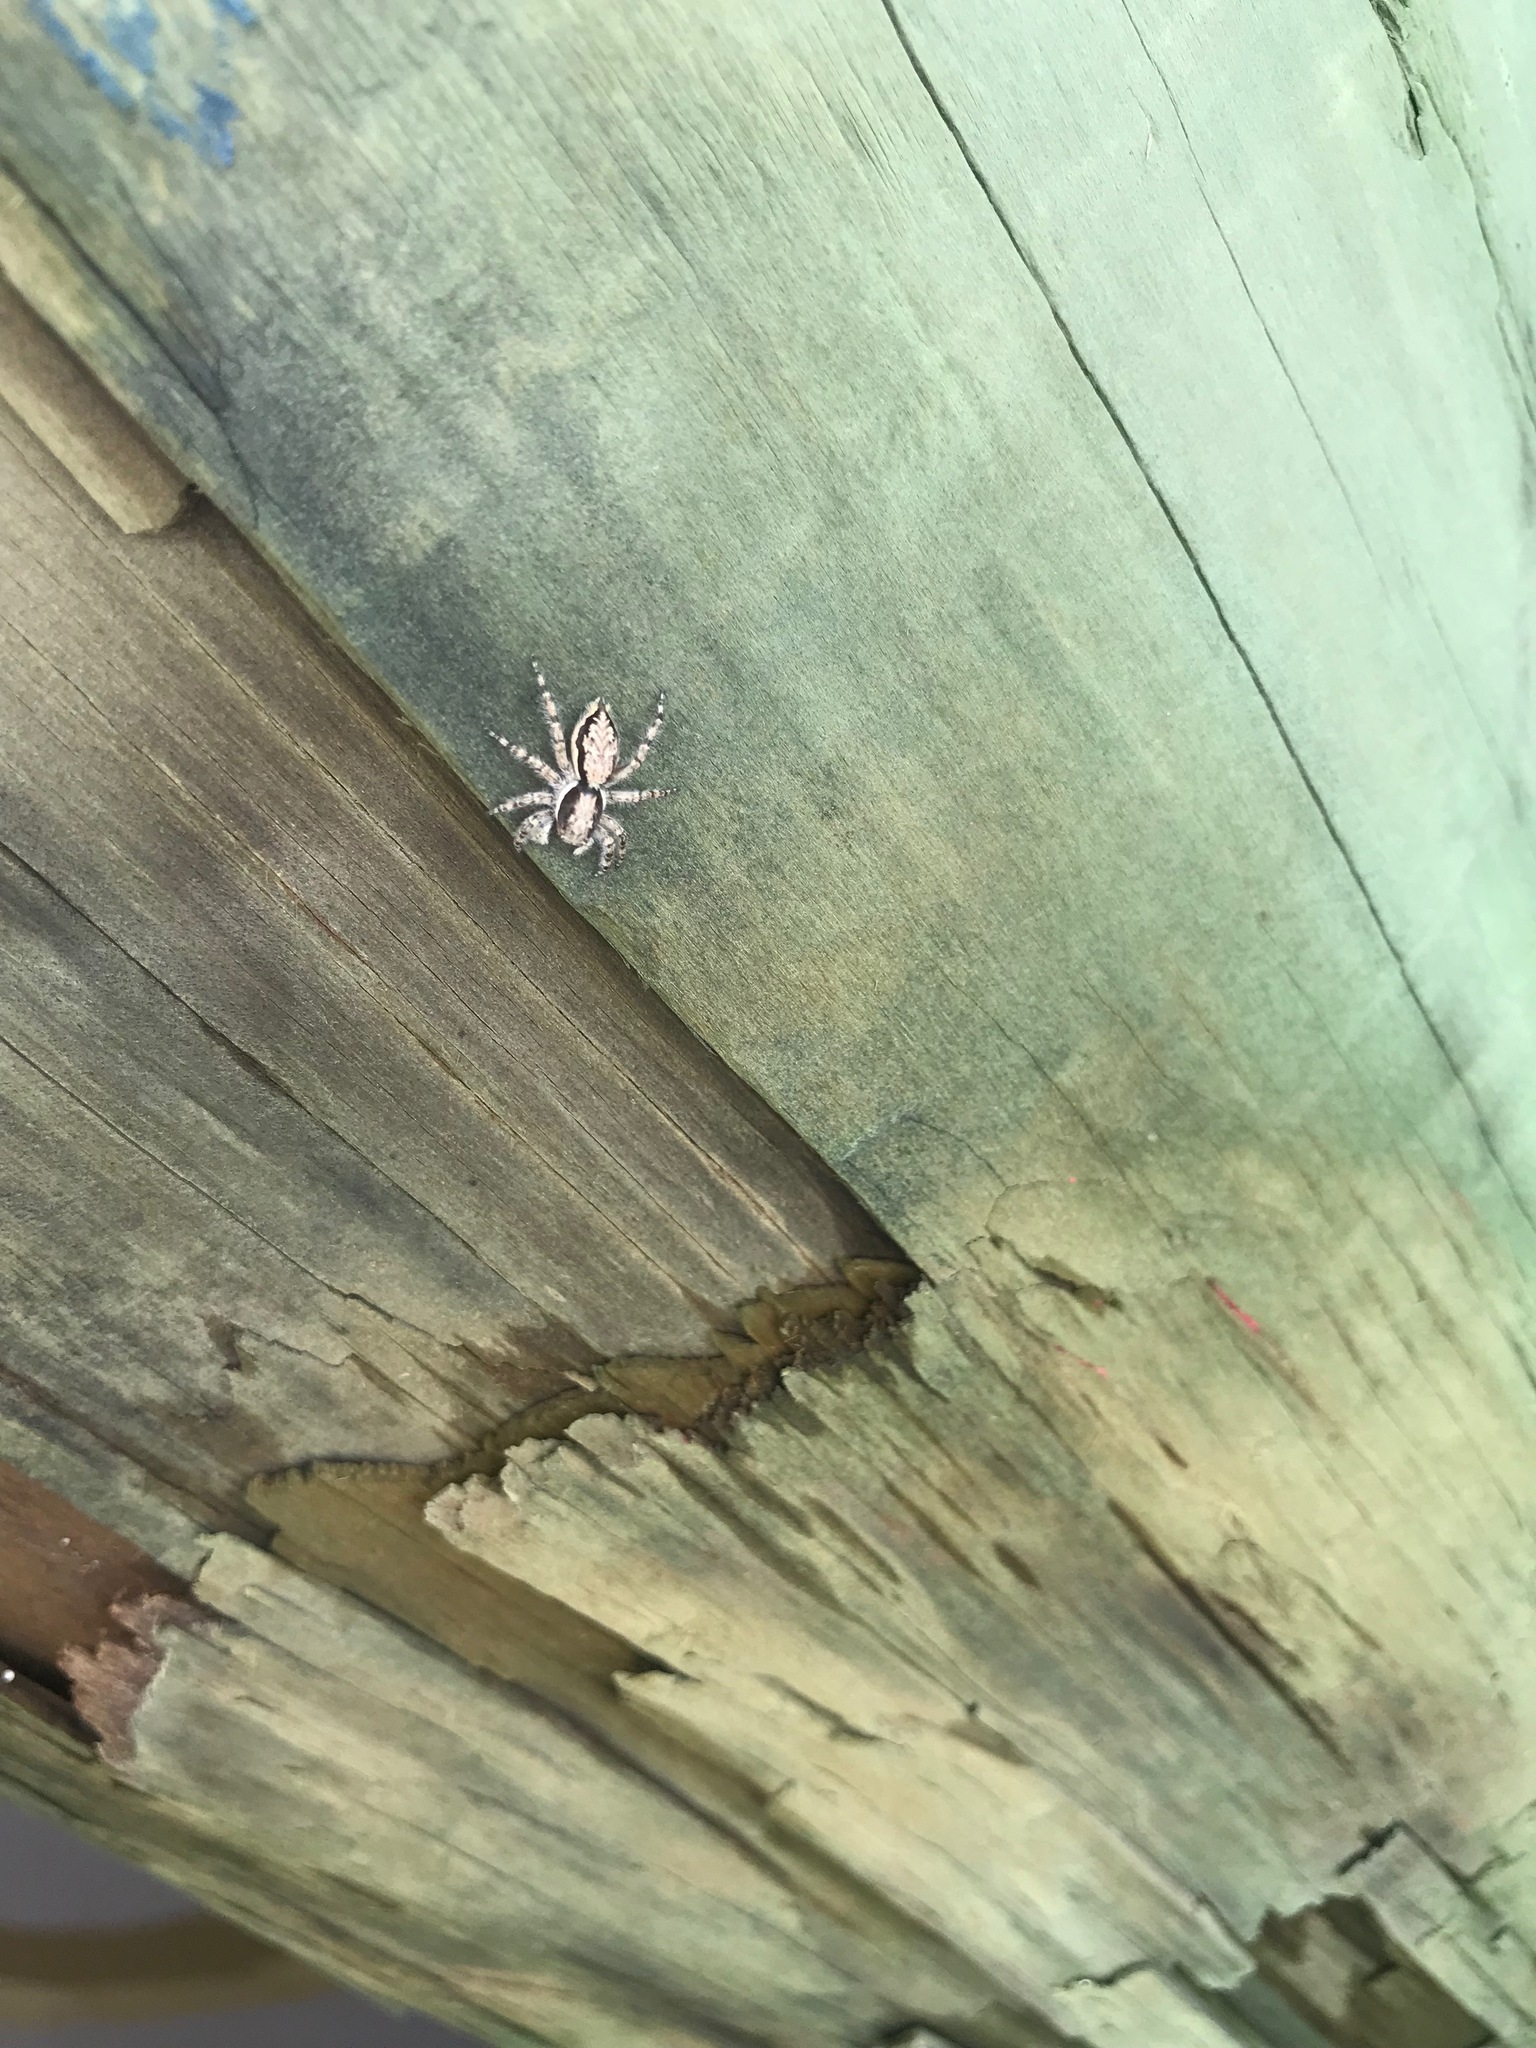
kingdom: Animalia
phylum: Arthropoda
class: Arachnida
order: Araneae
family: Salticidae
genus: Menemerus
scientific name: Menemerus bivittatus
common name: Gray wall jumper
